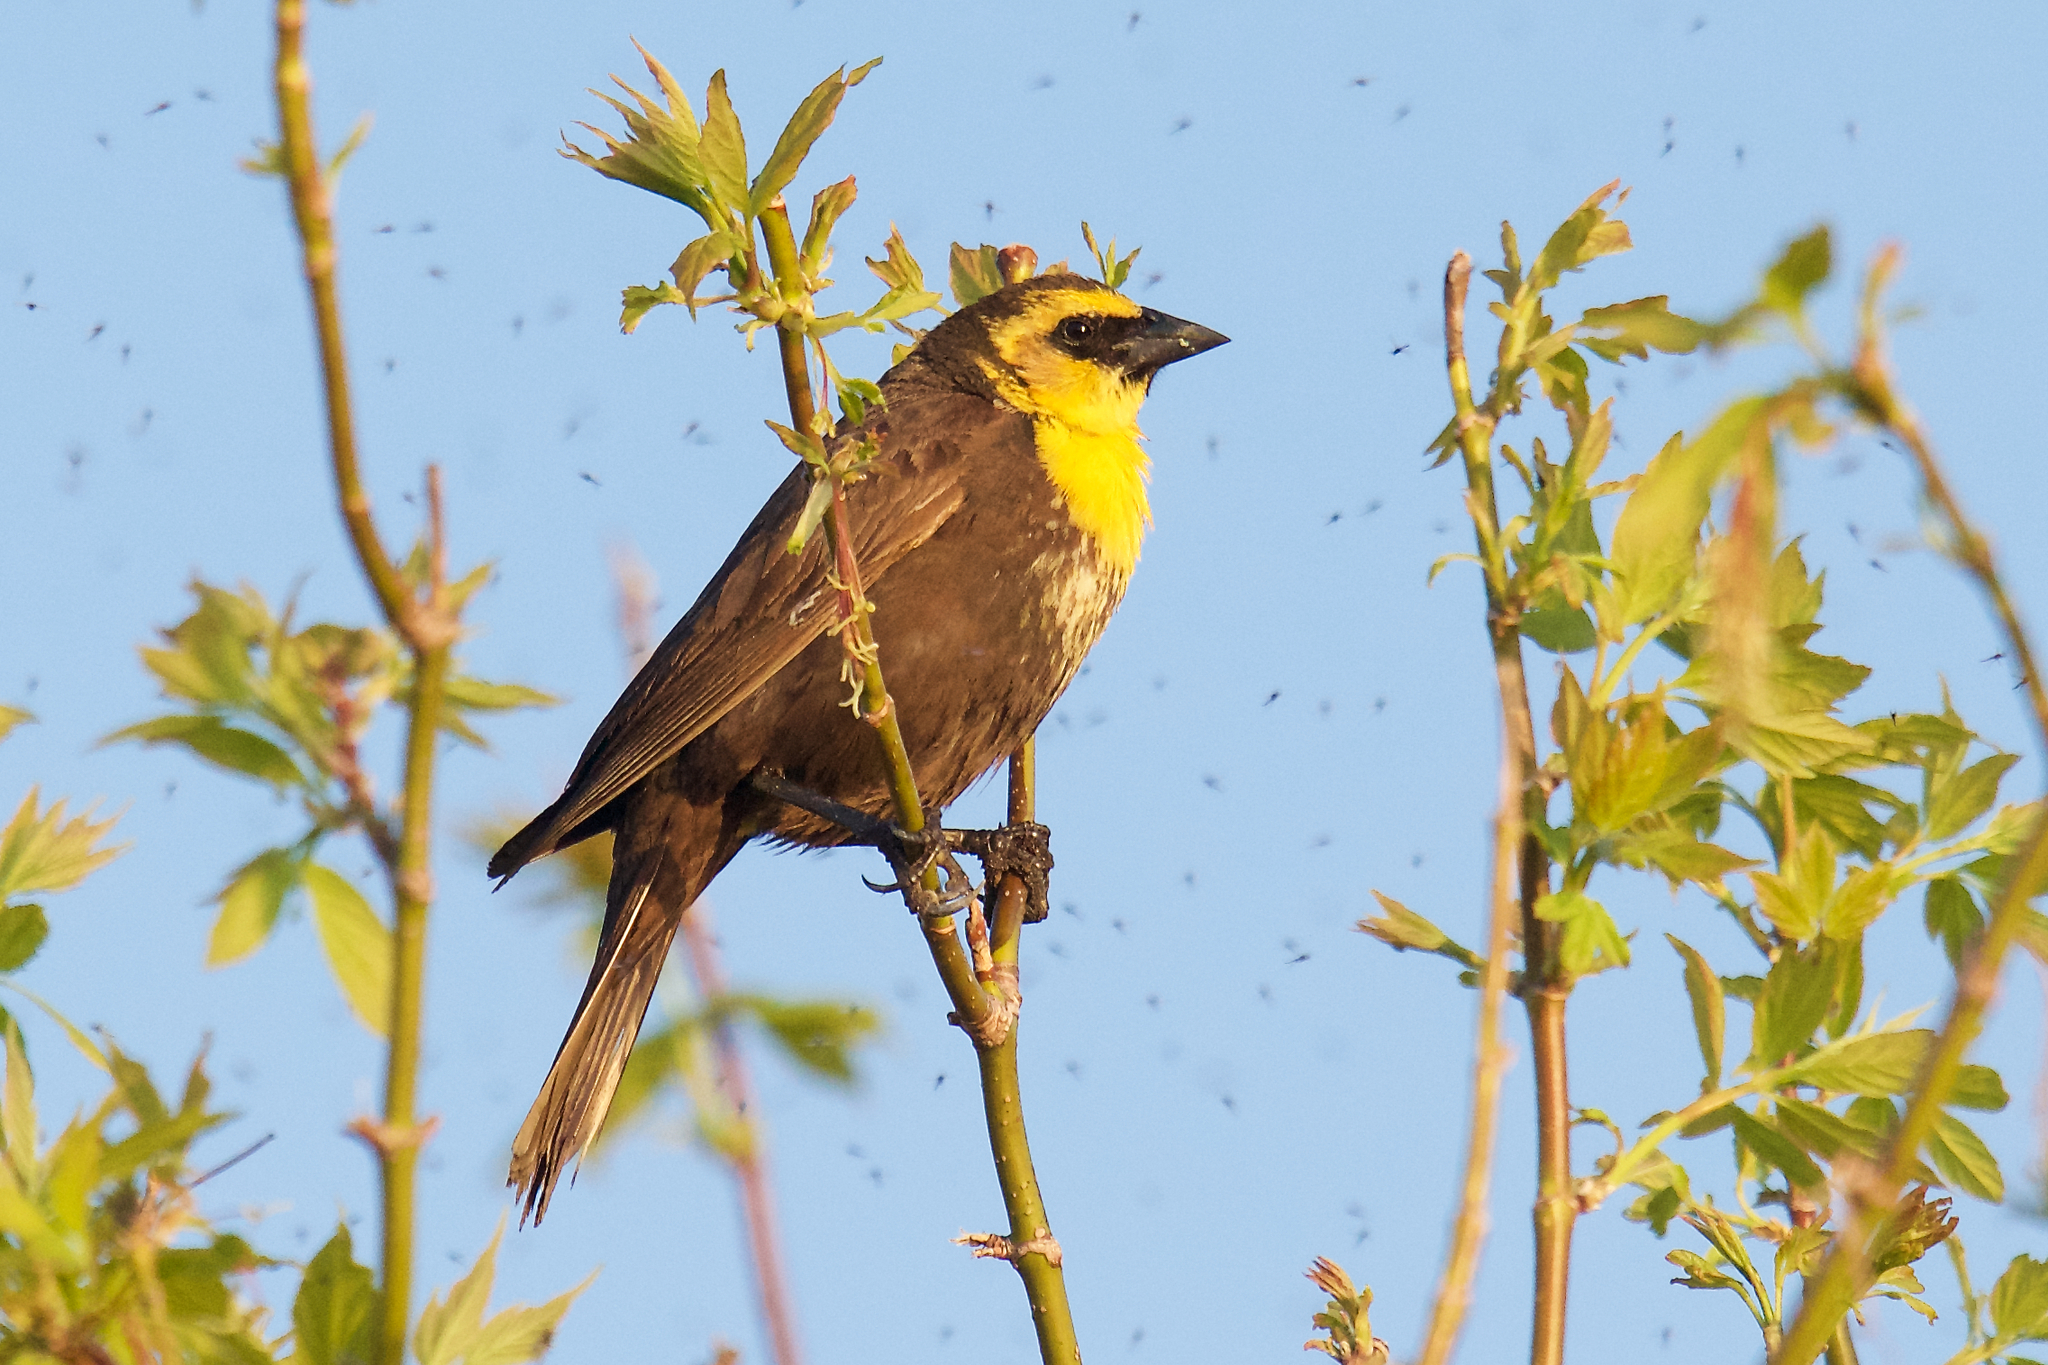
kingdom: Animalia
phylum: Chordata
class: Aves
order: Passeriformes
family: Icteridae
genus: Xanthocephalus
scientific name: Xanthocephalus xanthocephalus
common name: Yellow-headed blackbird
